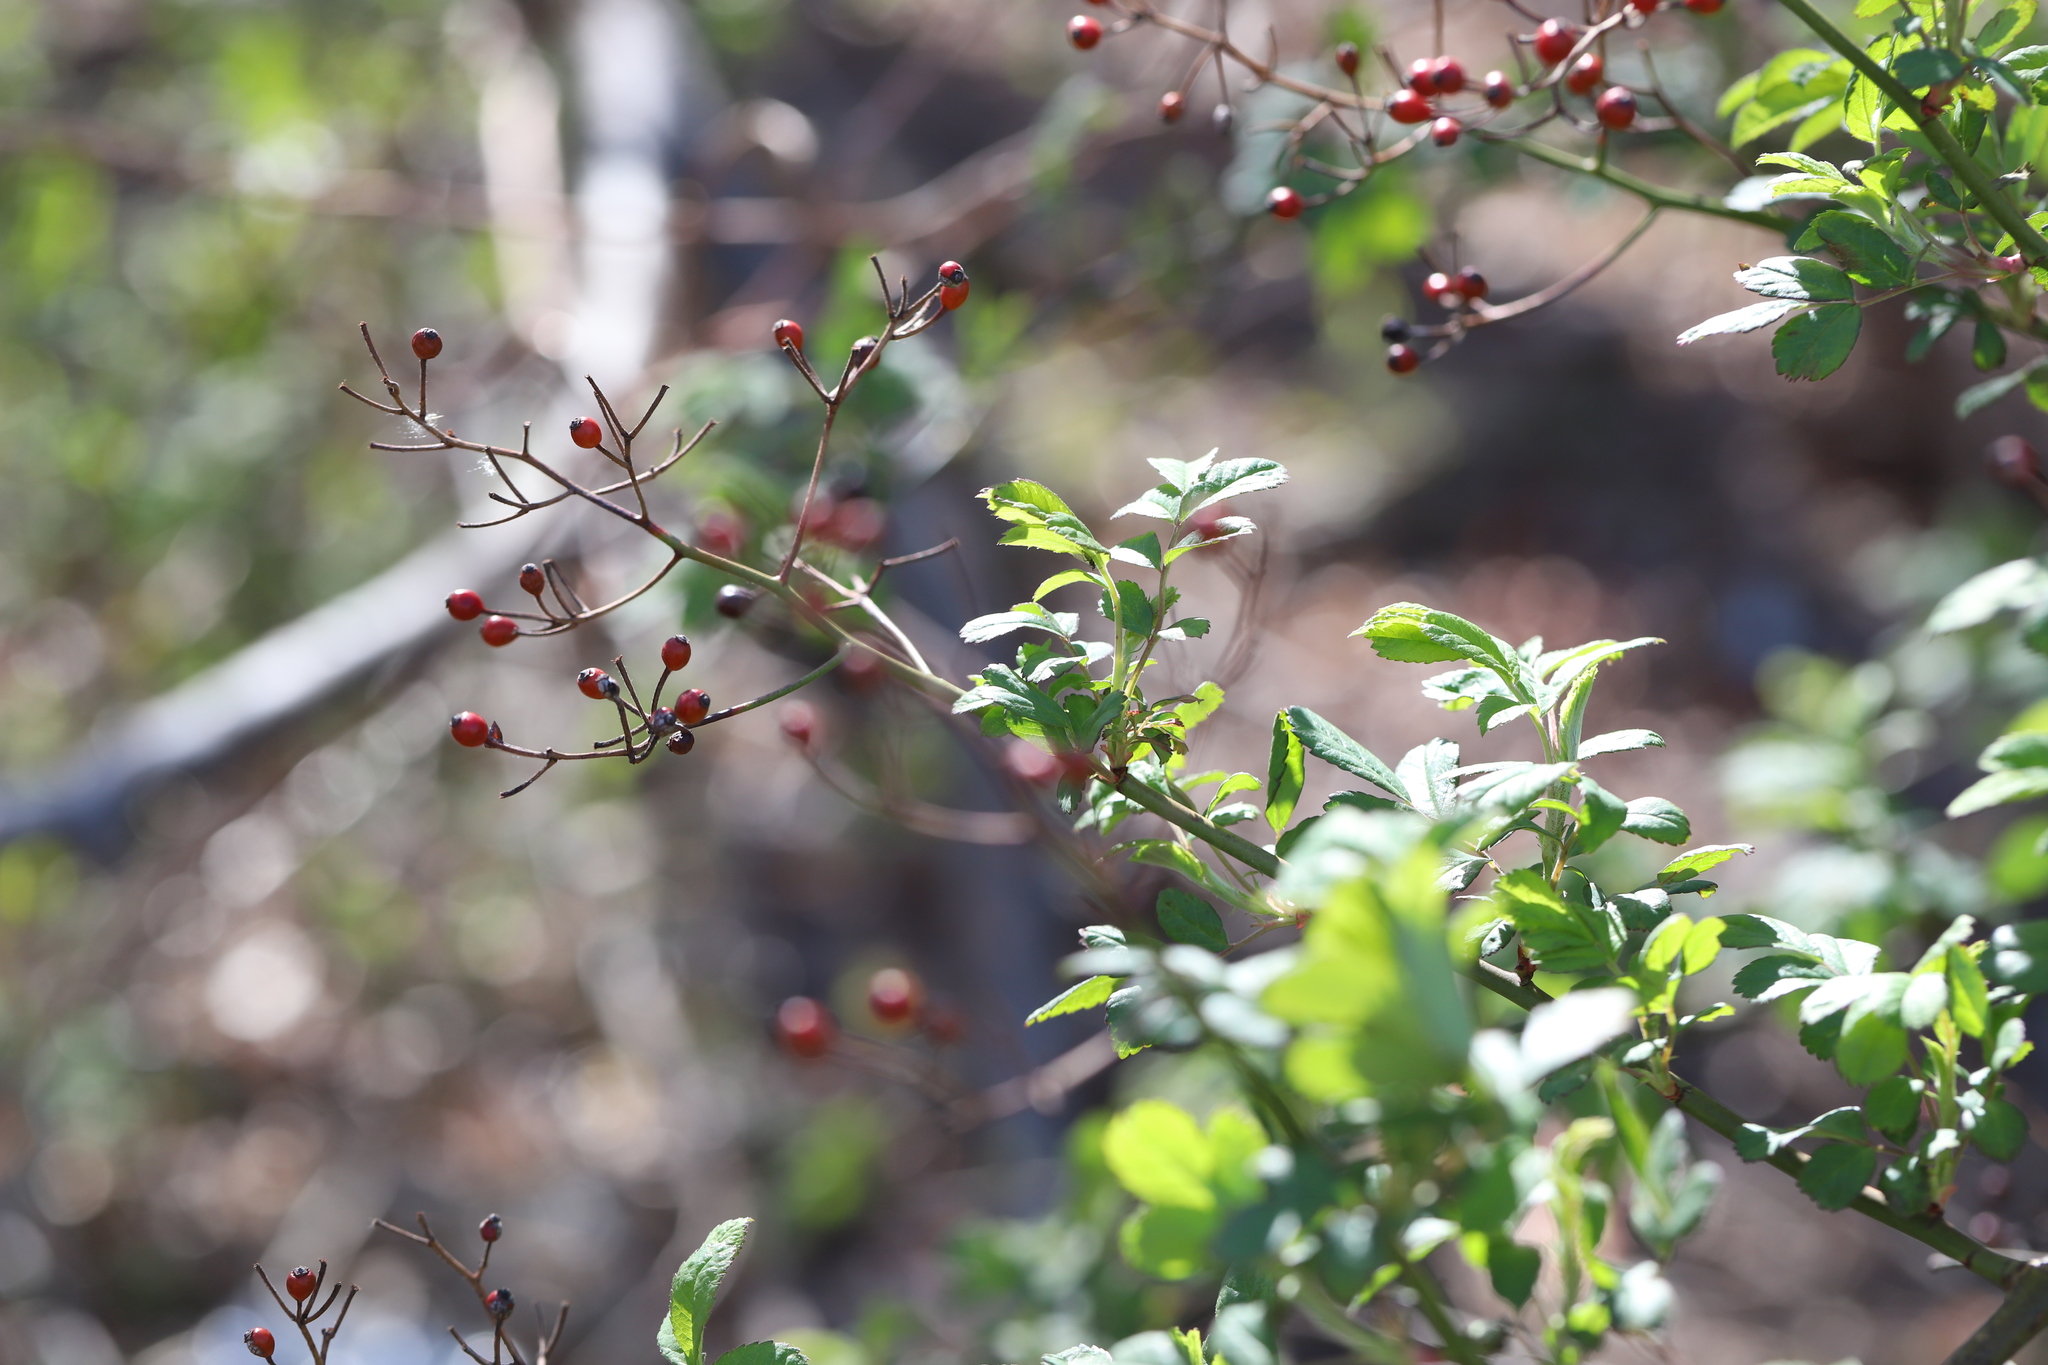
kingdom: Plantae
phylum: Tracheophyta
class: Magnoliopsida
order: Rosales
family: Rosaceae
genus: Rosa
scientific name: Rosa multiflora
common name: Multiflora rose
